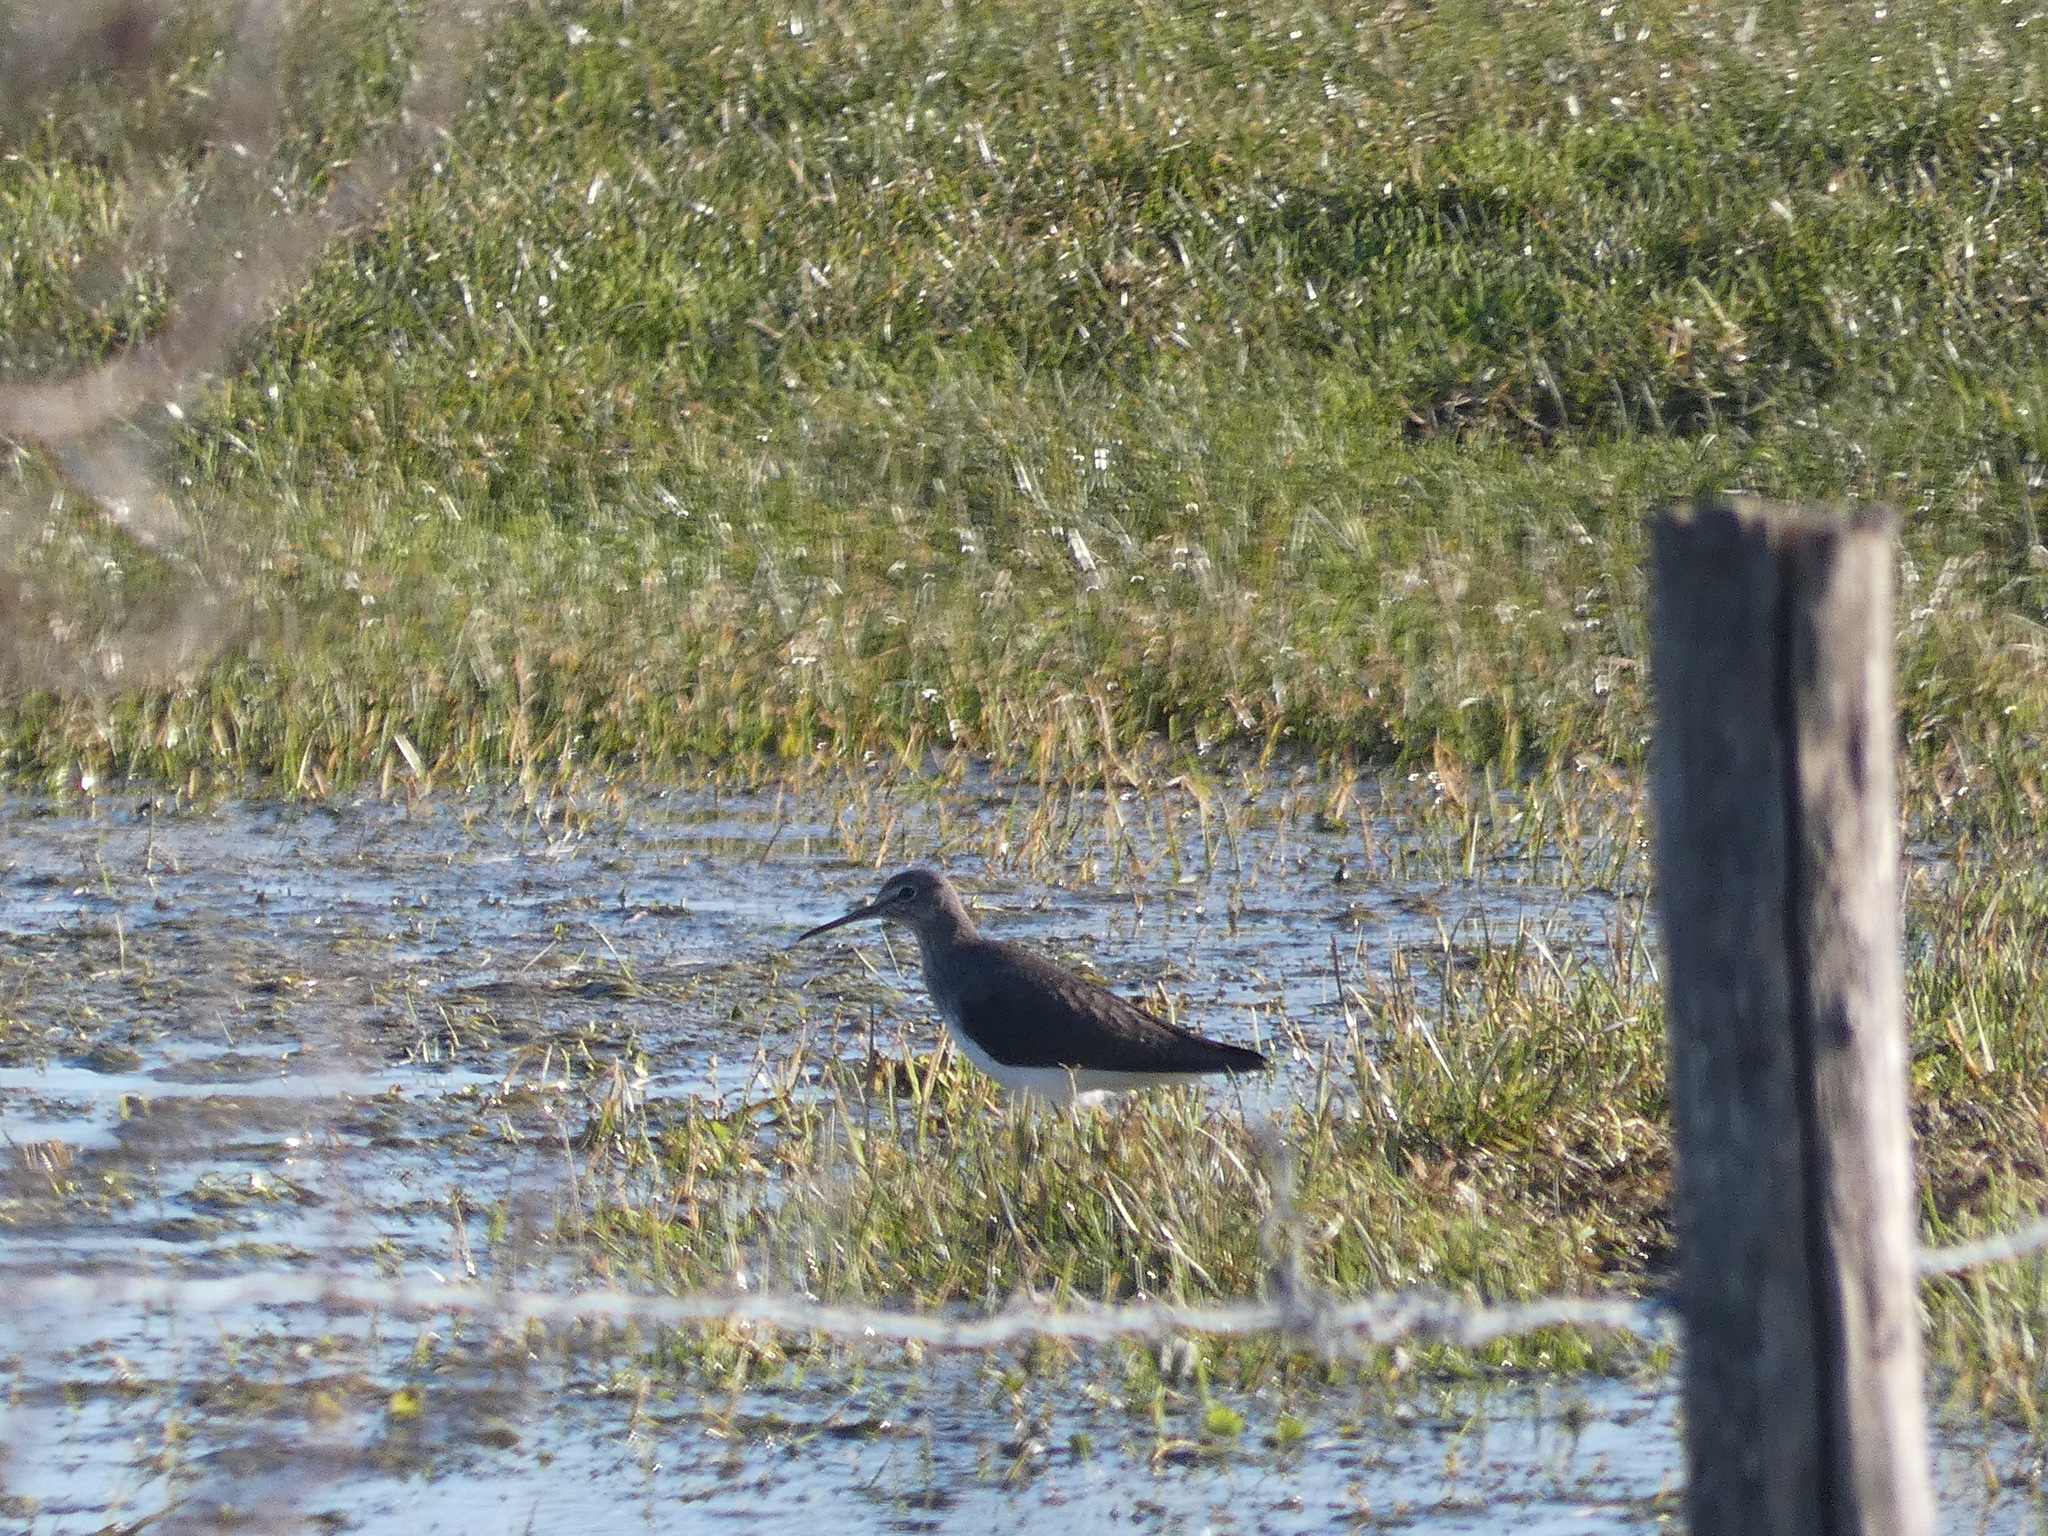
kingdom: Animalia
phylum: Chordata
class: Aves
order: Charadriiformes
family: Scolopacidae
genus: Tringa
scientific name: Tringa ochropus
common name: Green sandpiper
